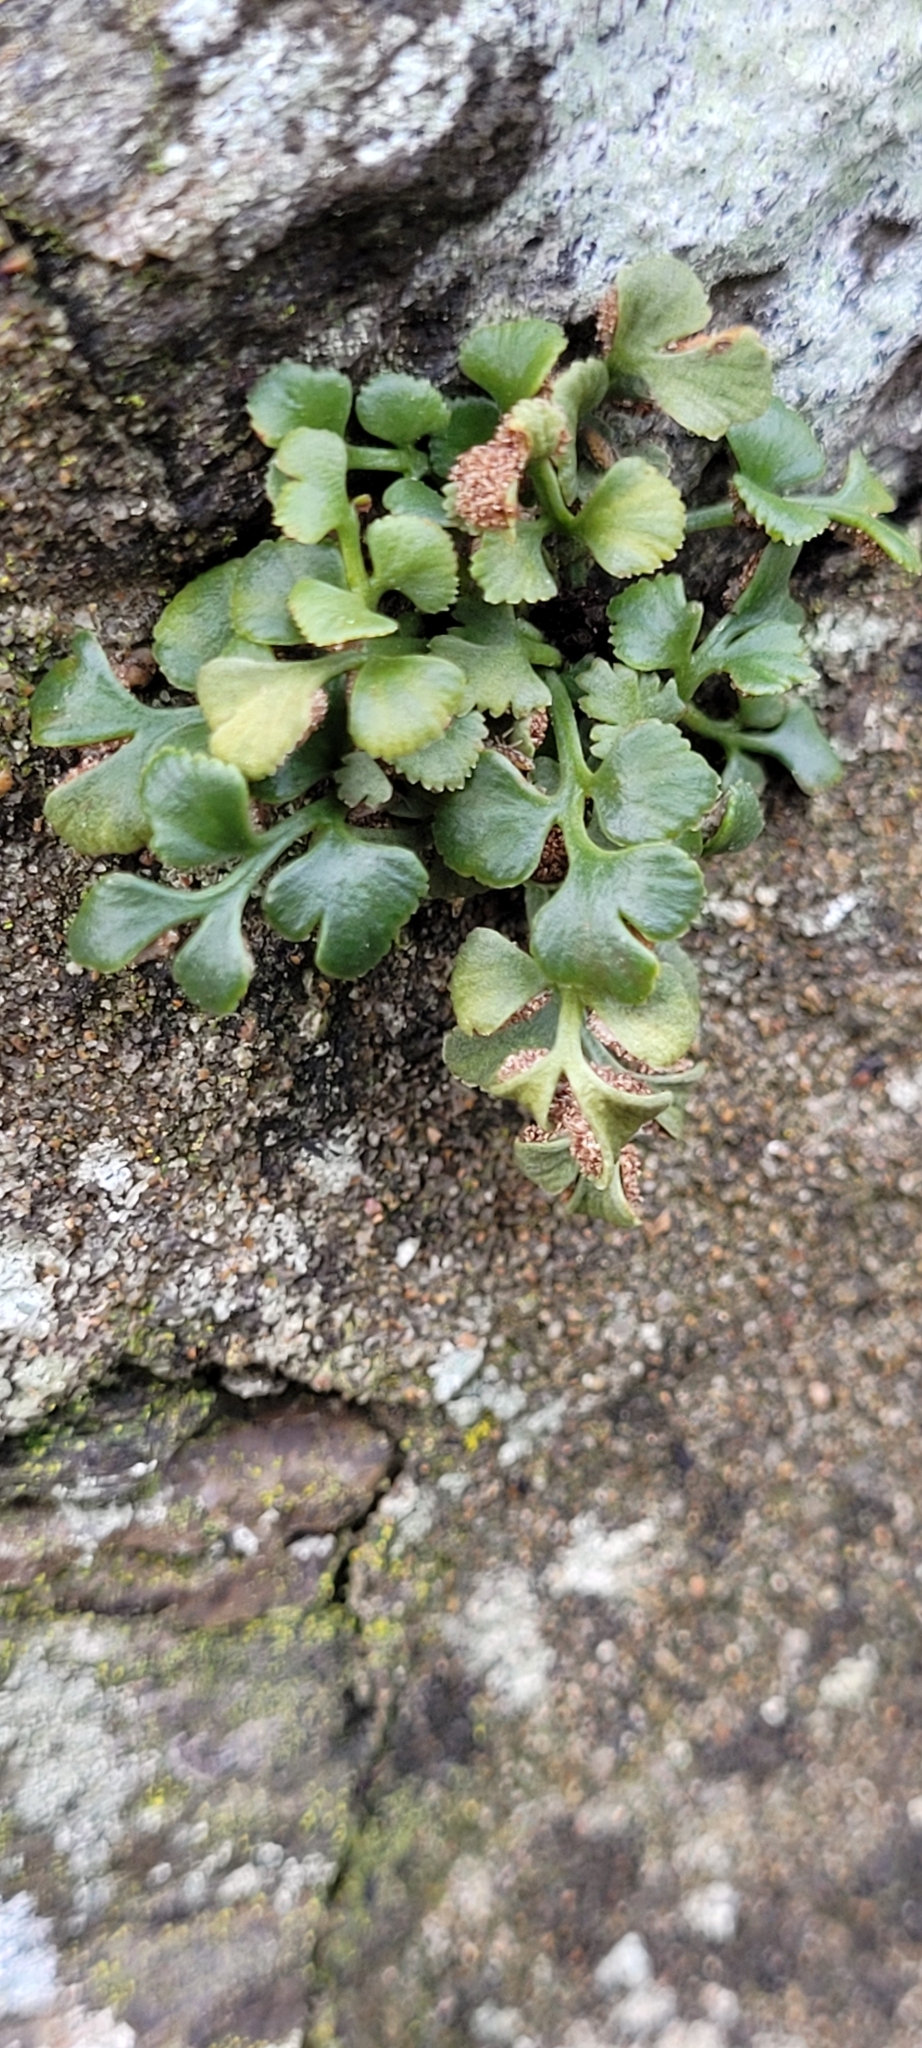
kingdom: Plantae
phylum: Tracheophyta
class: Polypodiopsida
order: Polypodiales
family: Aspleniaceae
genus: Asplenium
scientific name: Asplenium ruta-muraria
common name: Wall-rue
